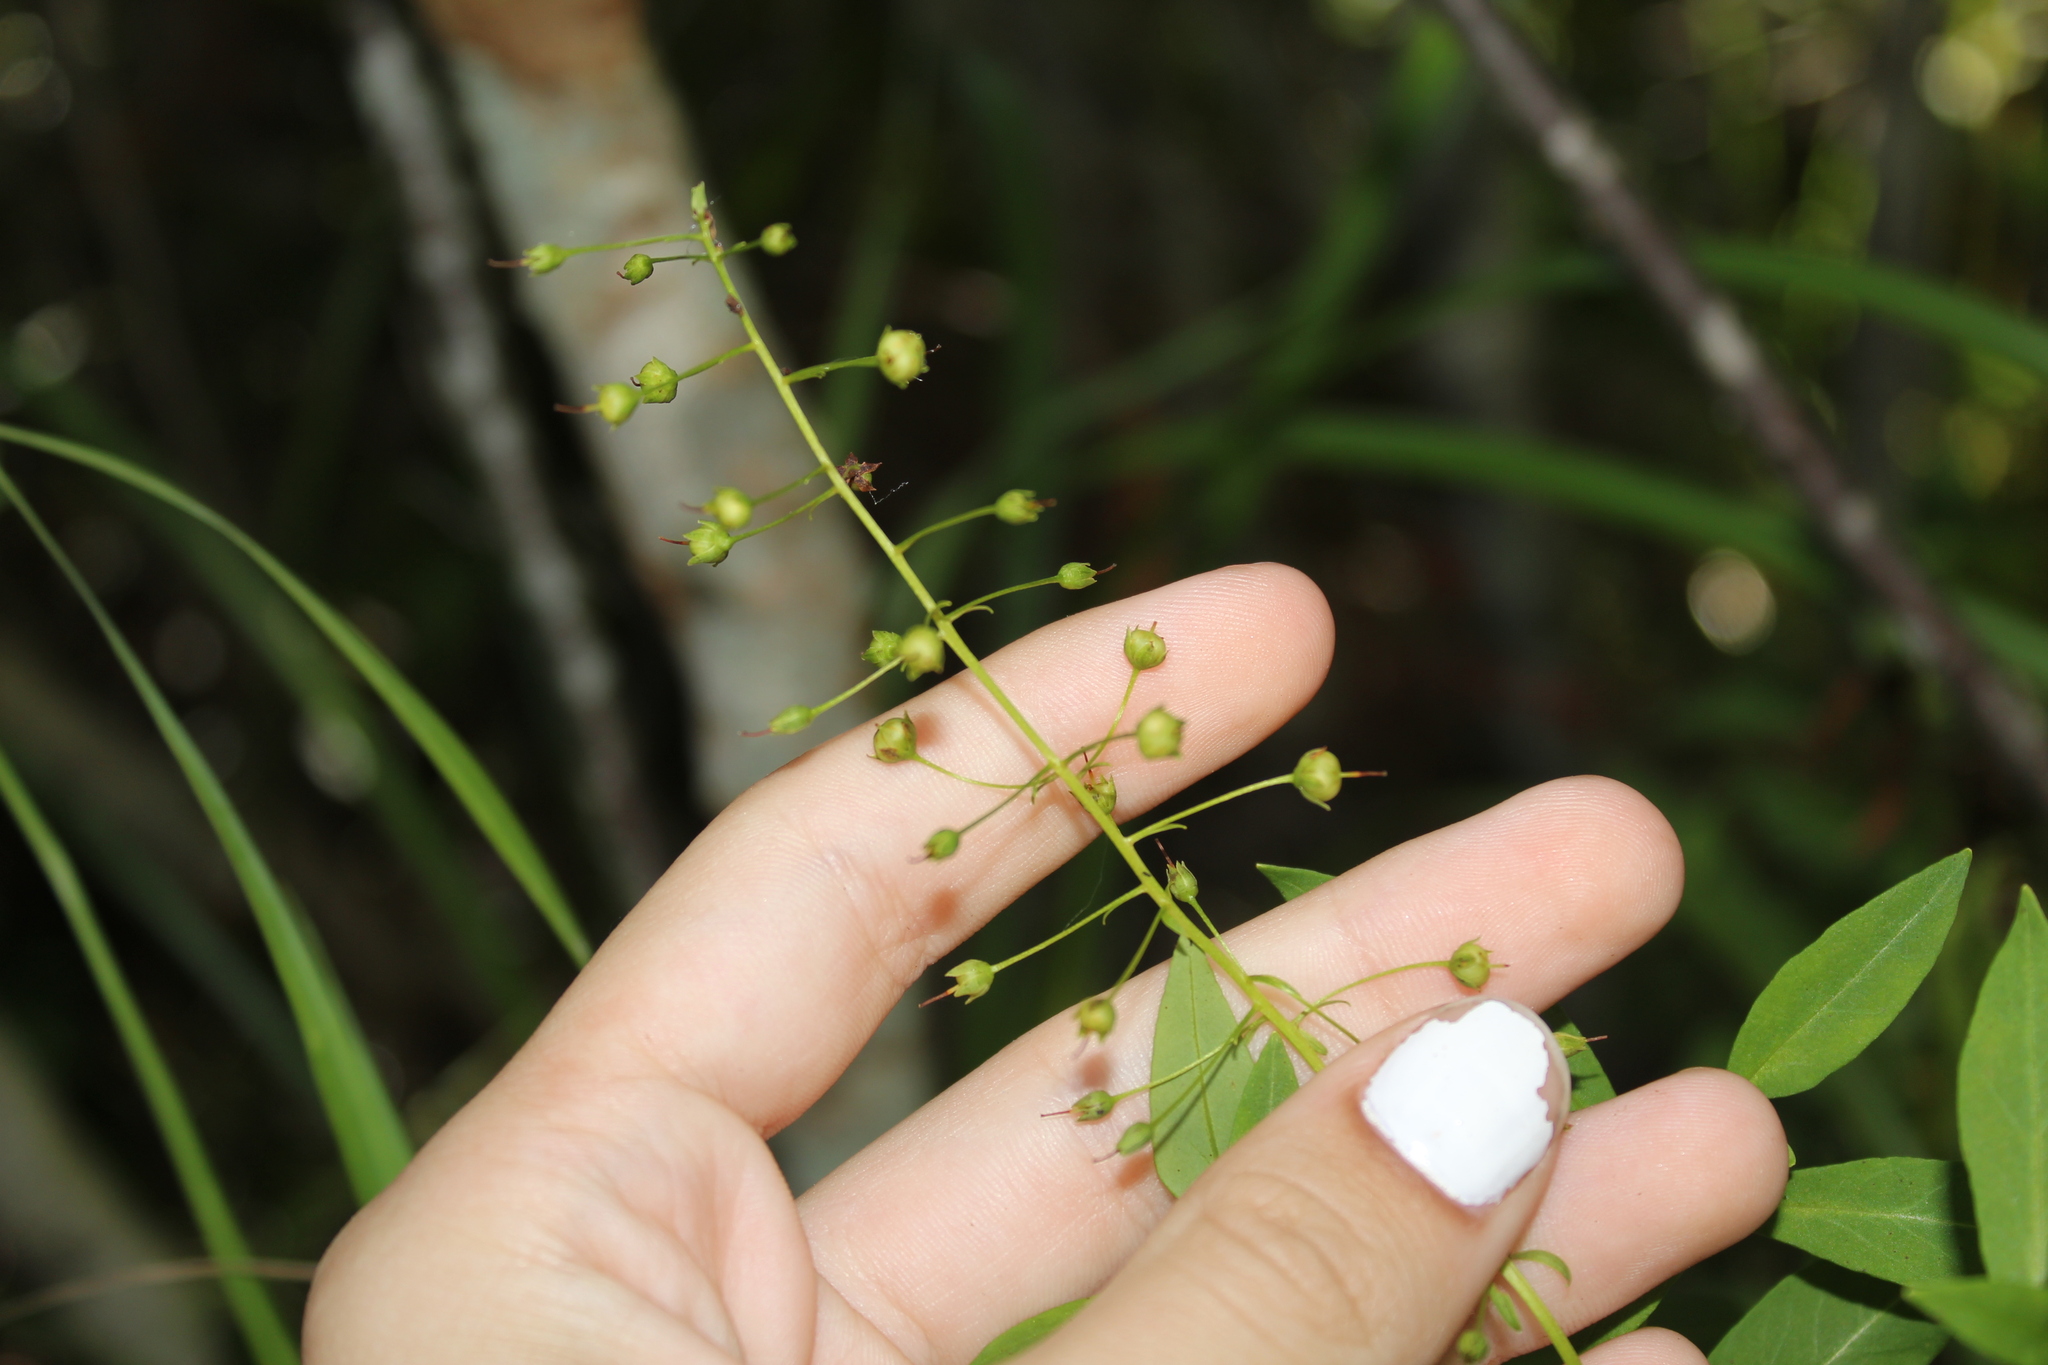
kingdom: Plantae
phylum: Tracheophyta
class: Magnoliopsida
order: Ericales
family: Primulaceae
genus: Lysimachia
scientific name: Lysimachia terrestris
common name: Lake loosestrife
